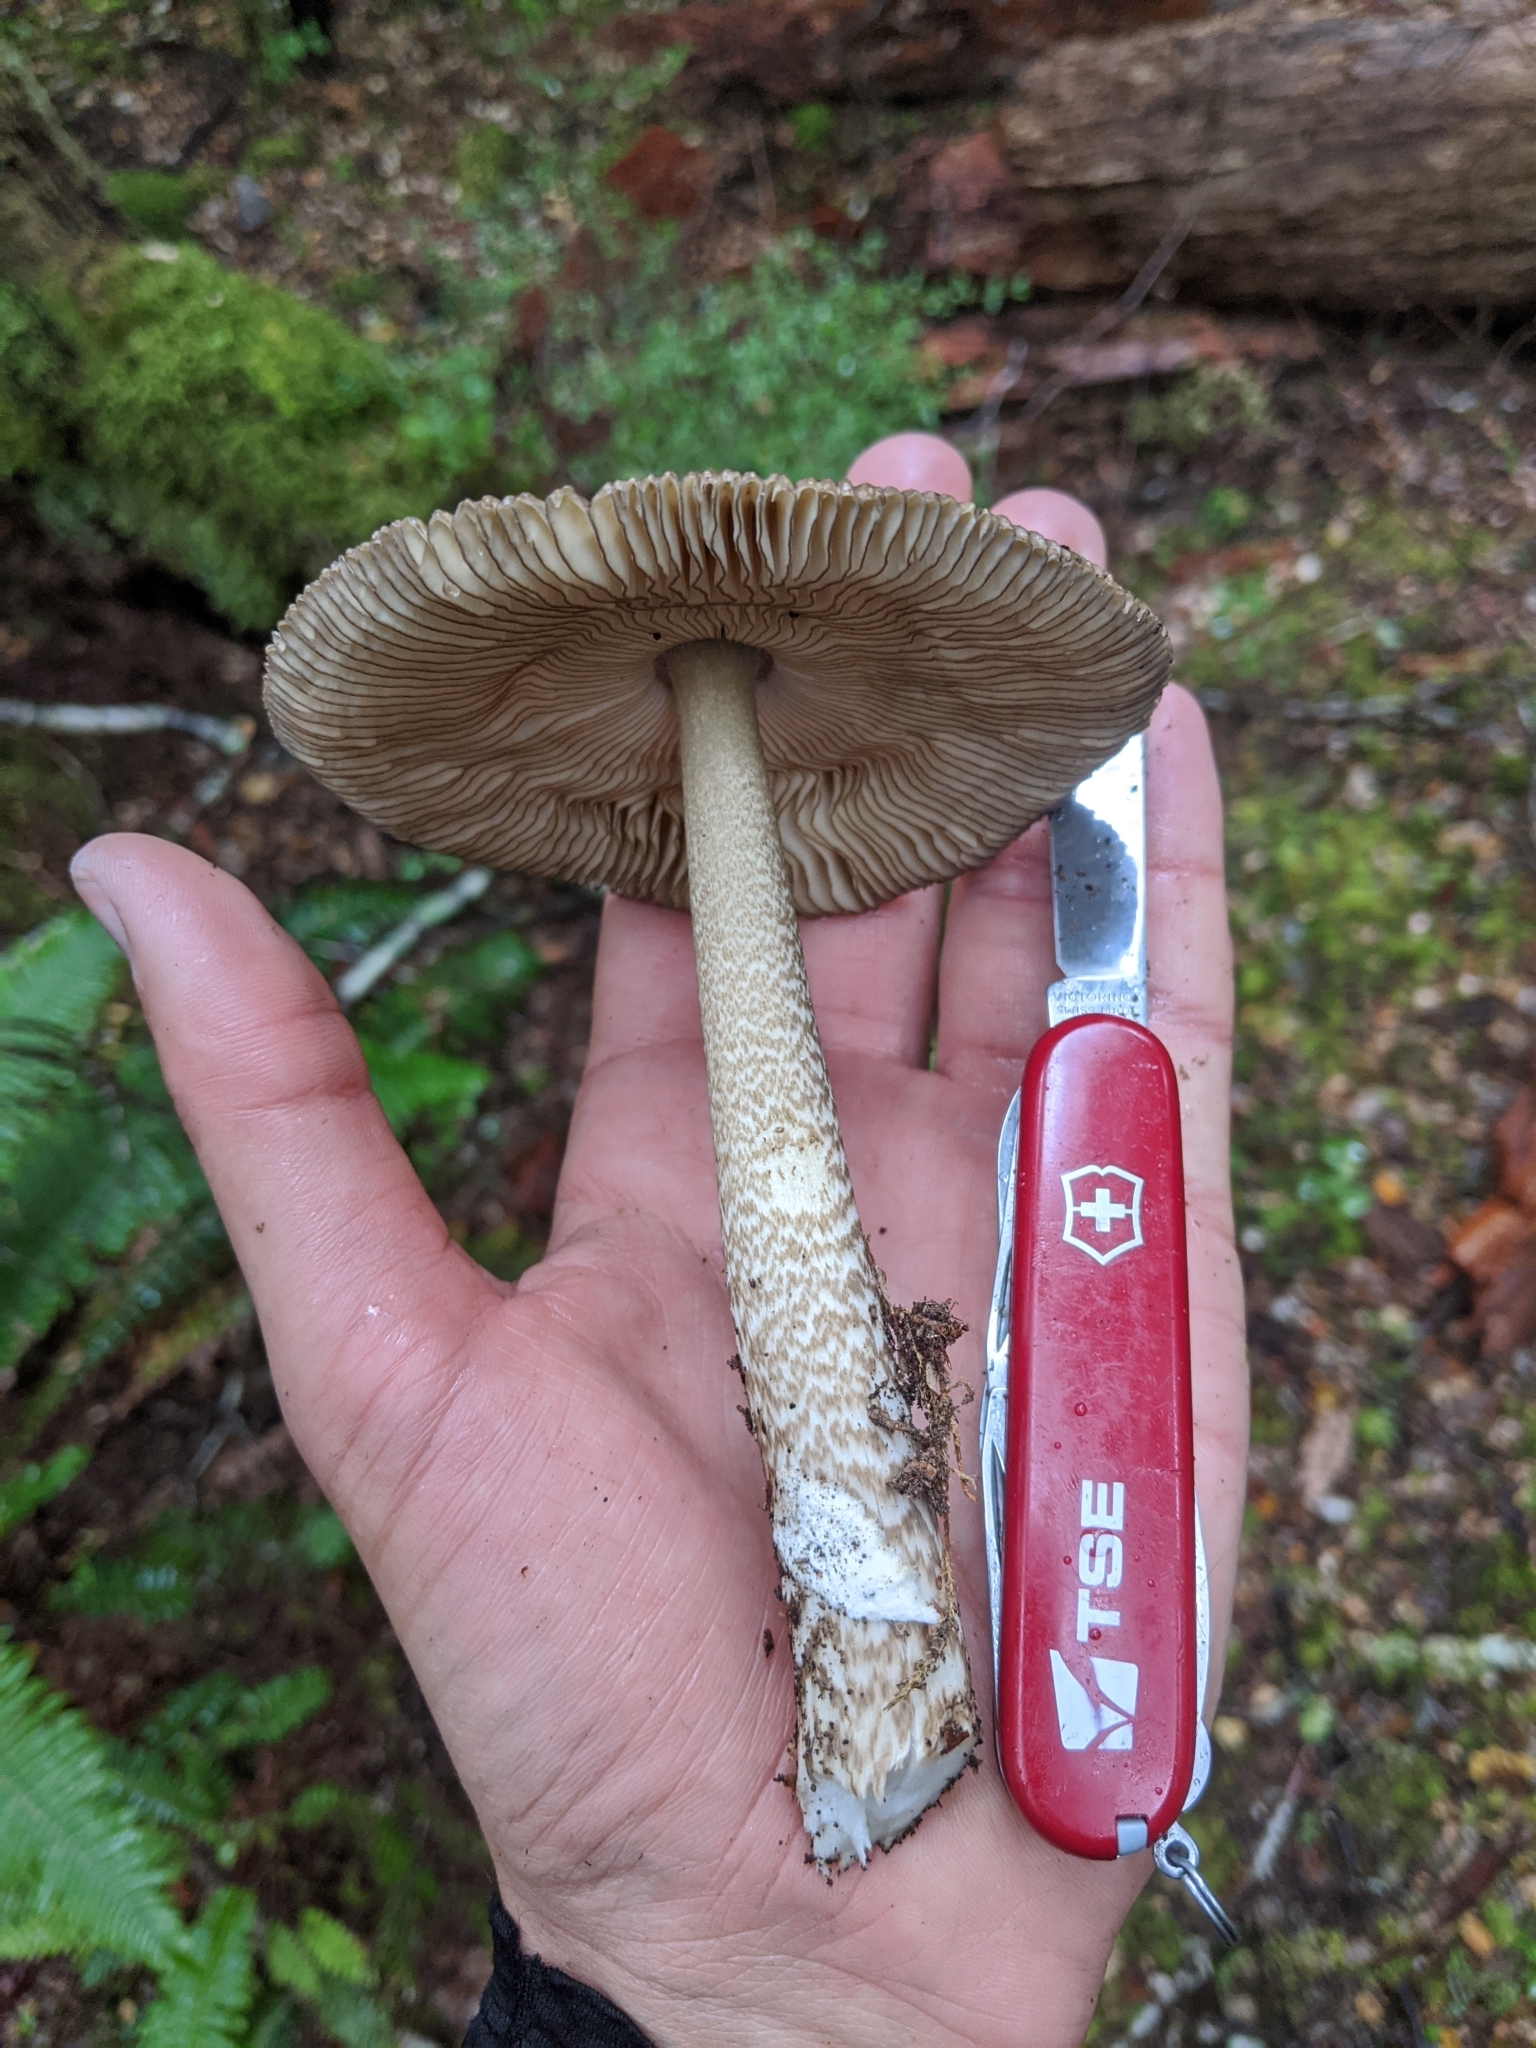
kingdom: Fungi
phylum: Basidiomycota
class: Agaricomycetes
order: Agaricales
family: Amanitaceae
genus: Amanita
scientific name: Amanita pekeoides
